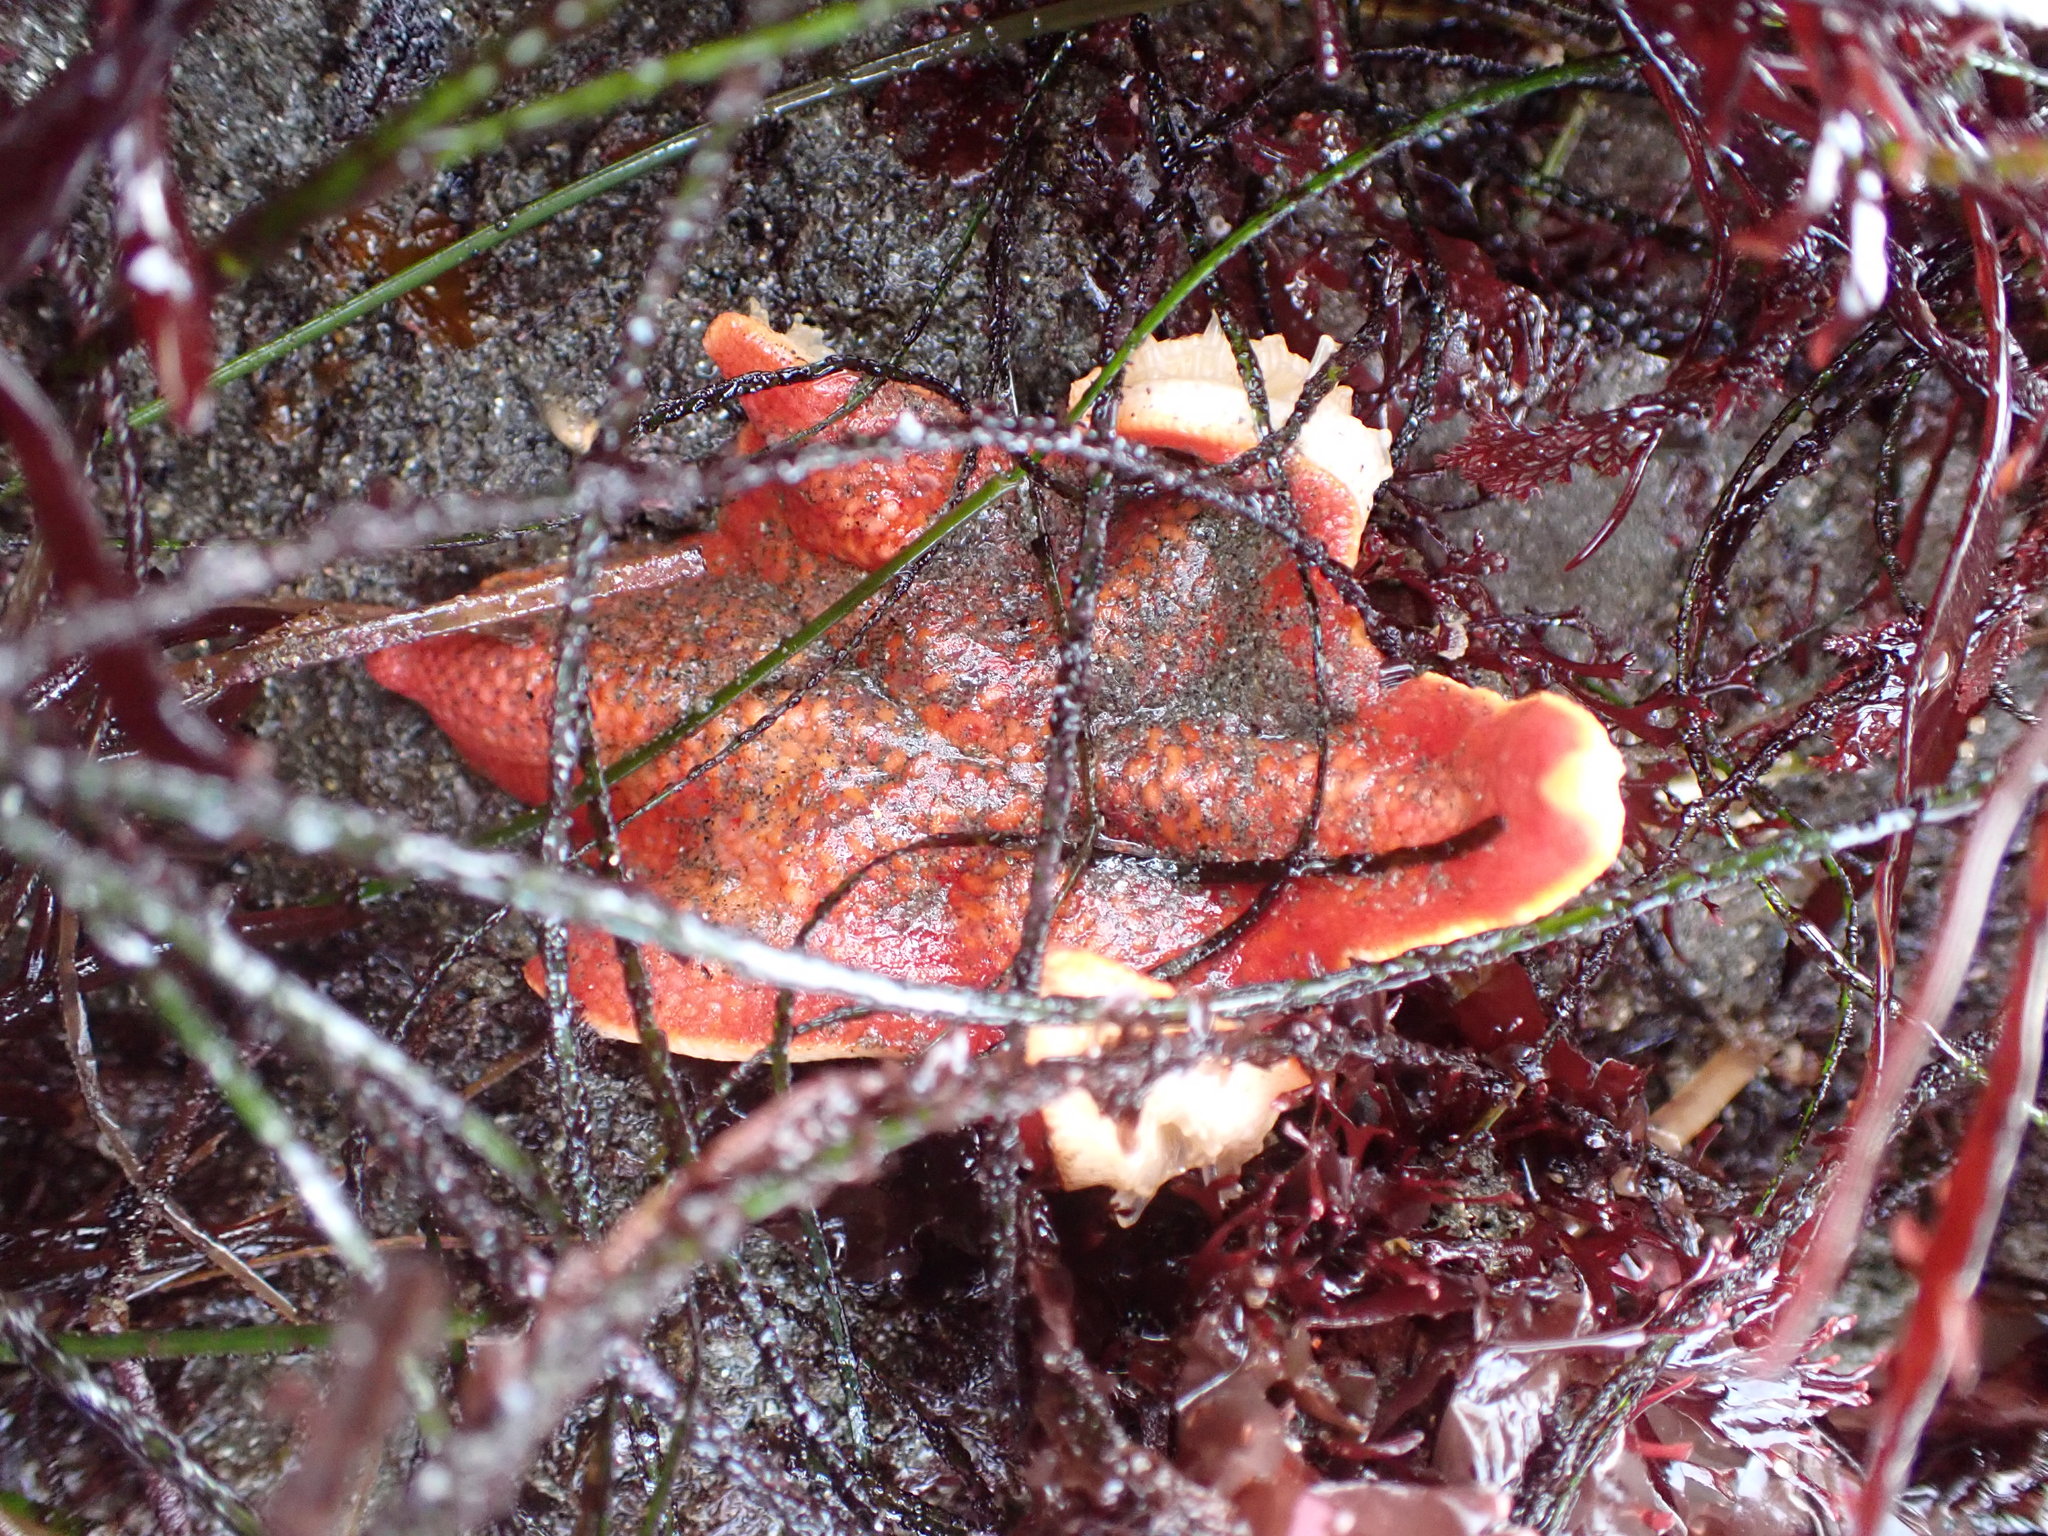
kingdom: Animalia
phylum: Echinodermata
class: Asteroidea
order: Valvatida
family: Asterinidae
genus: Patiria
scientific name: Patiria miniata
